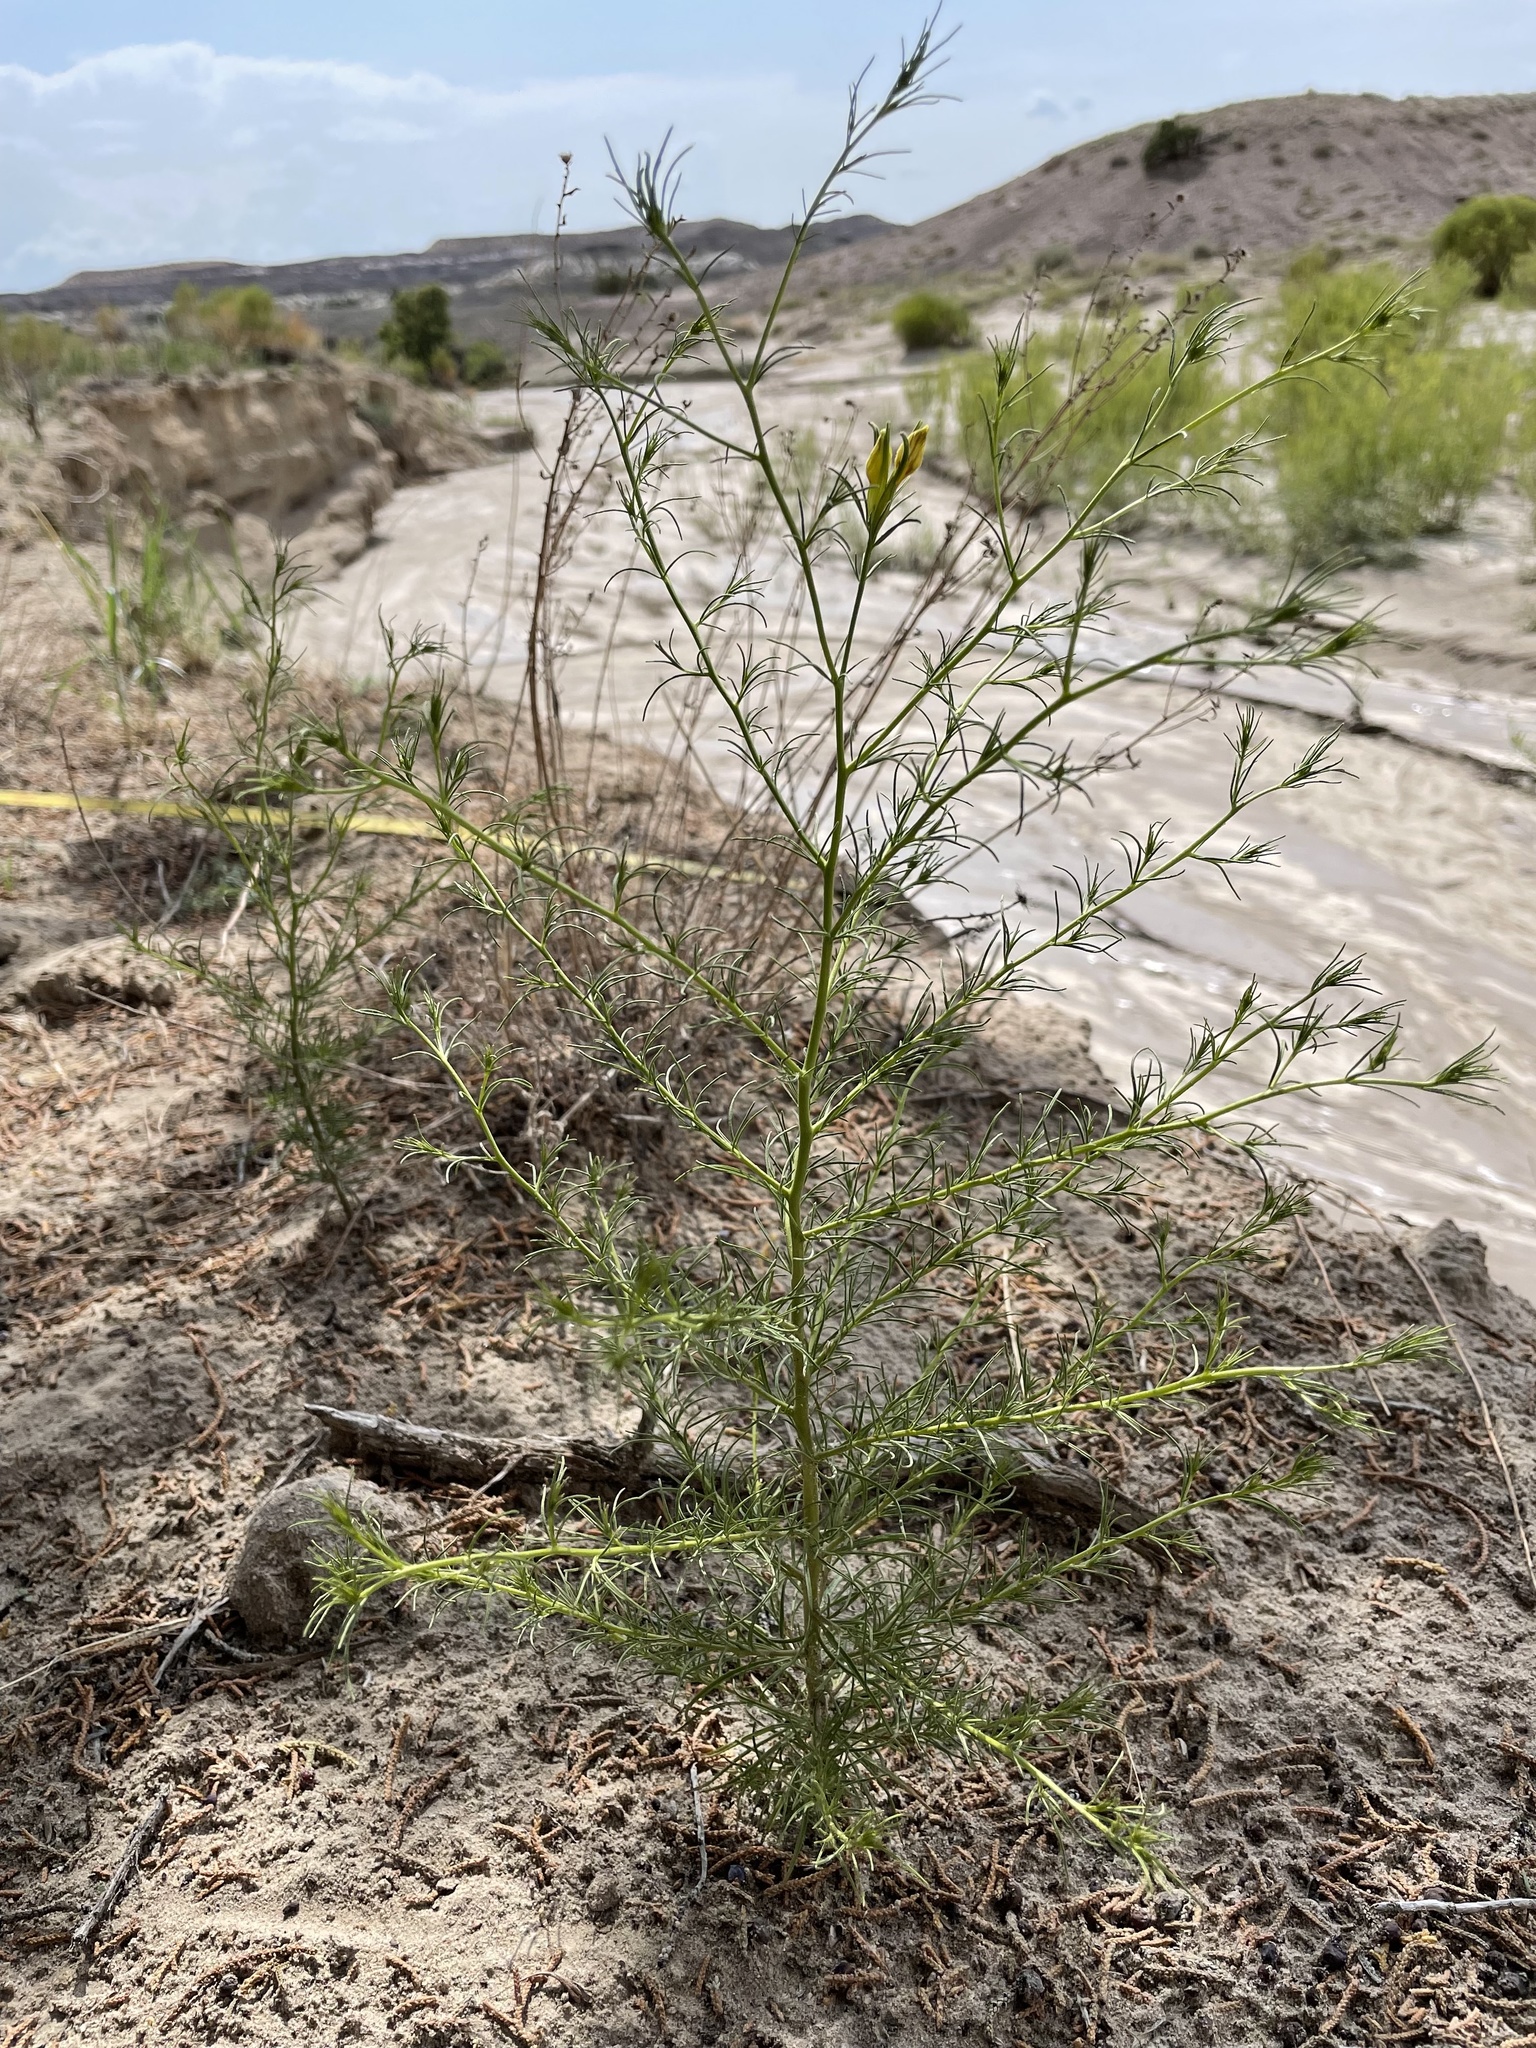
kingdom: Plantae
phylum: Tracheophyta
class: Magnoliopsida
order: Lamiales
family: Orobanchaceae
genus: Cordylanthus
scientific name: Cordylanthus wrightii
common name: Wright's birdsbeak
